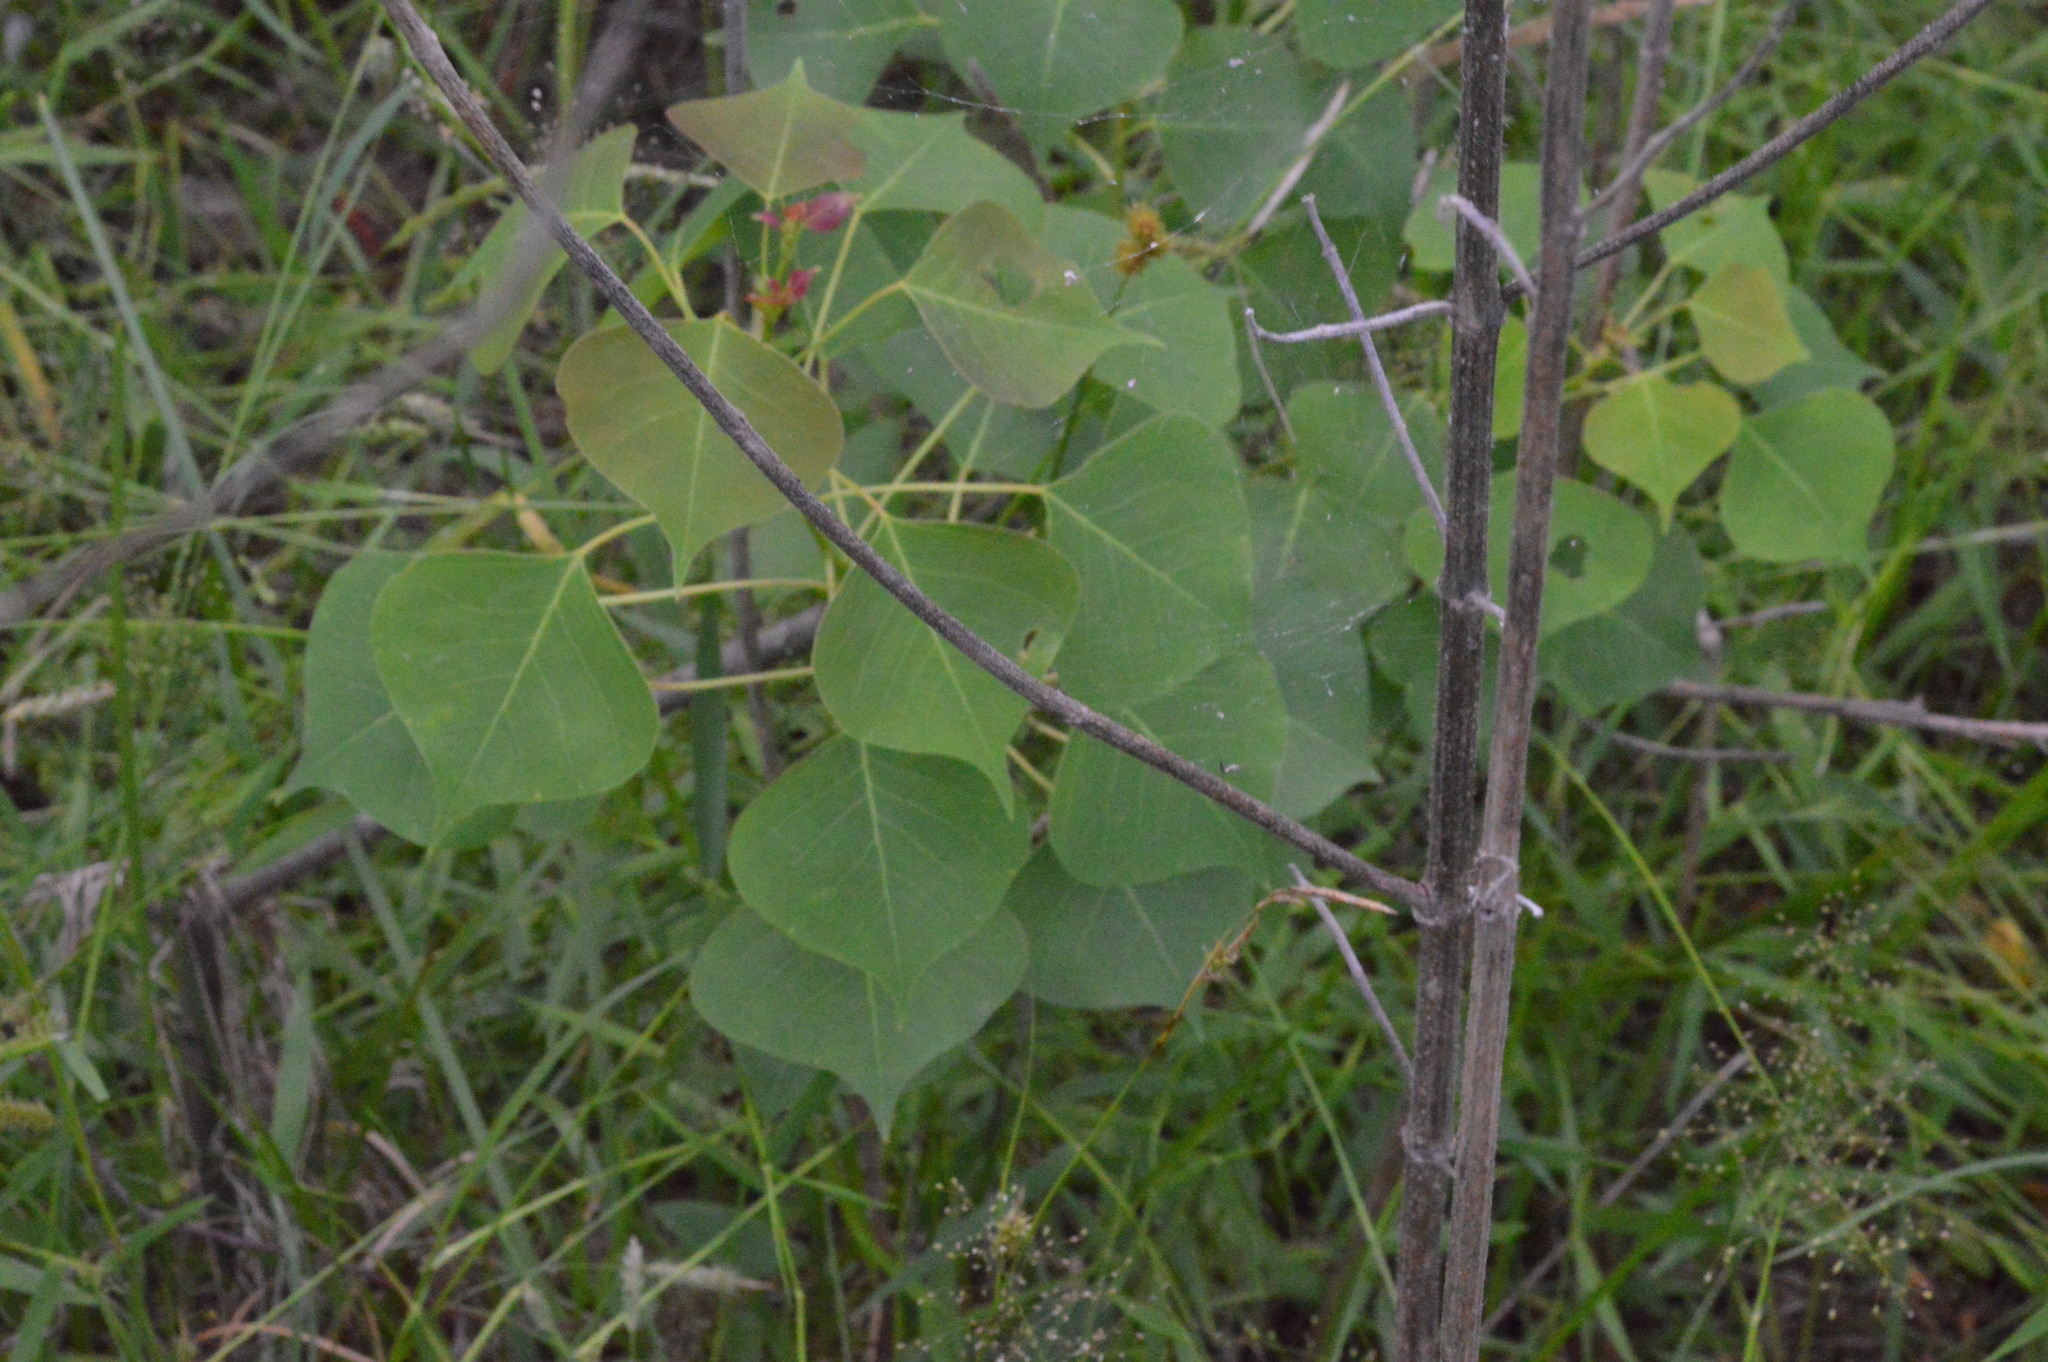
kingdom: Plantae
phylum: Tracheophyta
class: Magnoliopsida
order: Malpighiales
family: Euphorbiaceae
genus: Triadica
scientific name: Triadica sebifera
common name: Chinese tallow
